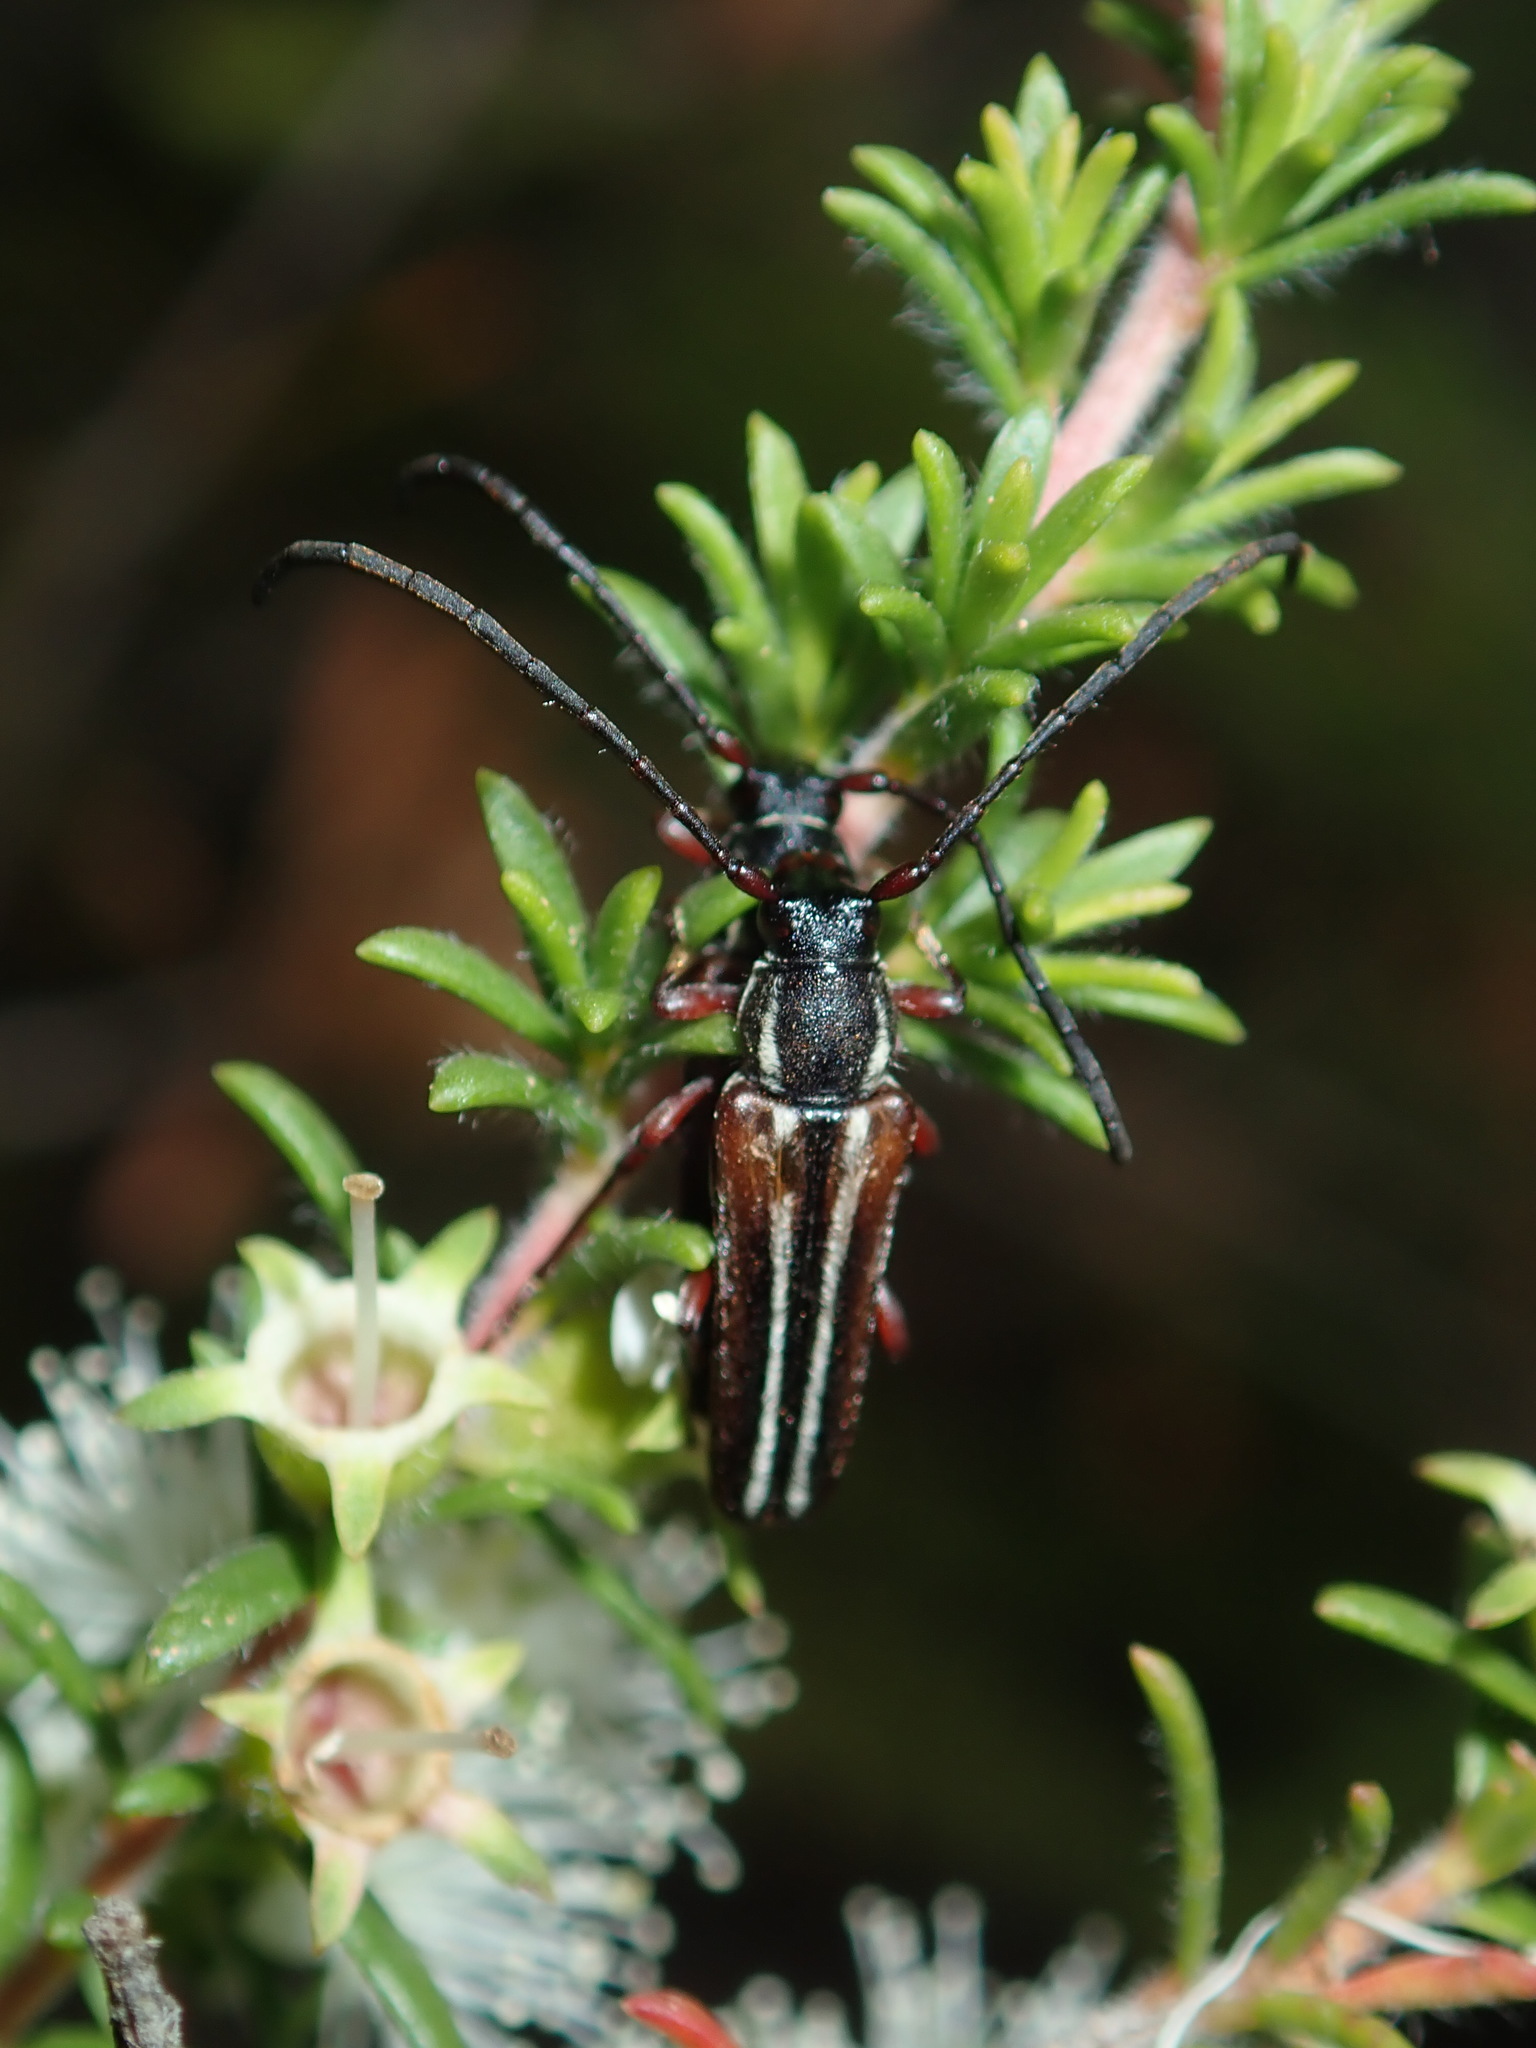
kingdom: Animalia
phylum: Arthropoda
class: Insecta
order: Coleoptera
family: Cerambycidae
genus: Trichomesia
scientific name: Trichomesia newmani
